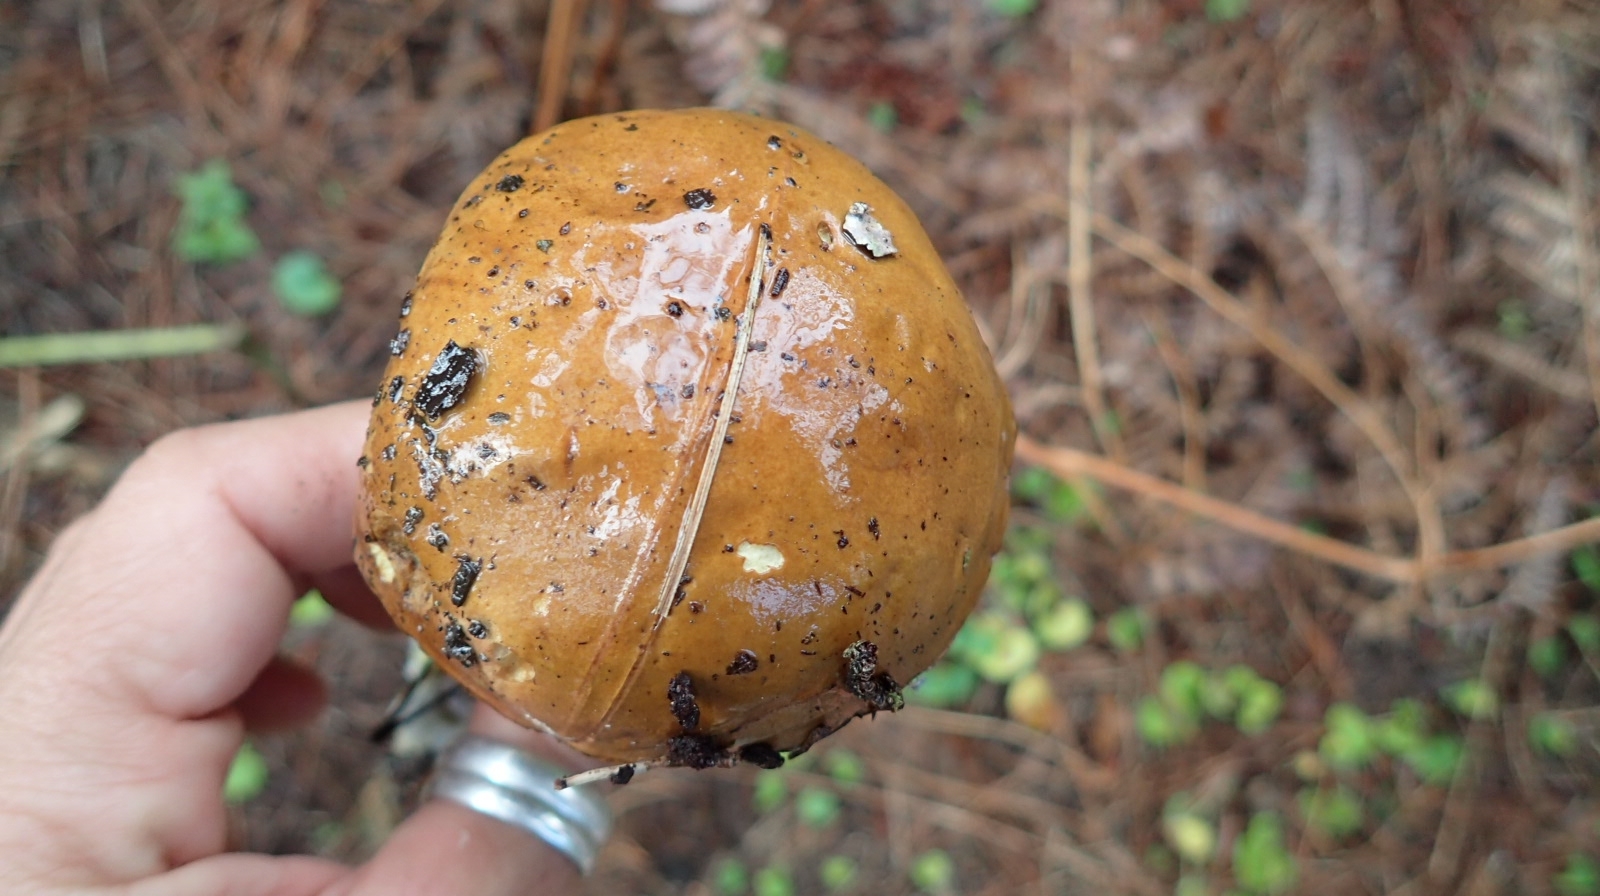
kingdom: Fungi
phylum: Basidiomycota
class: Agaricomycetes
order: Boletales
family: Boletaceae
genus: Imleria
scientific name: Imleria badia
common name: Bay bolete
